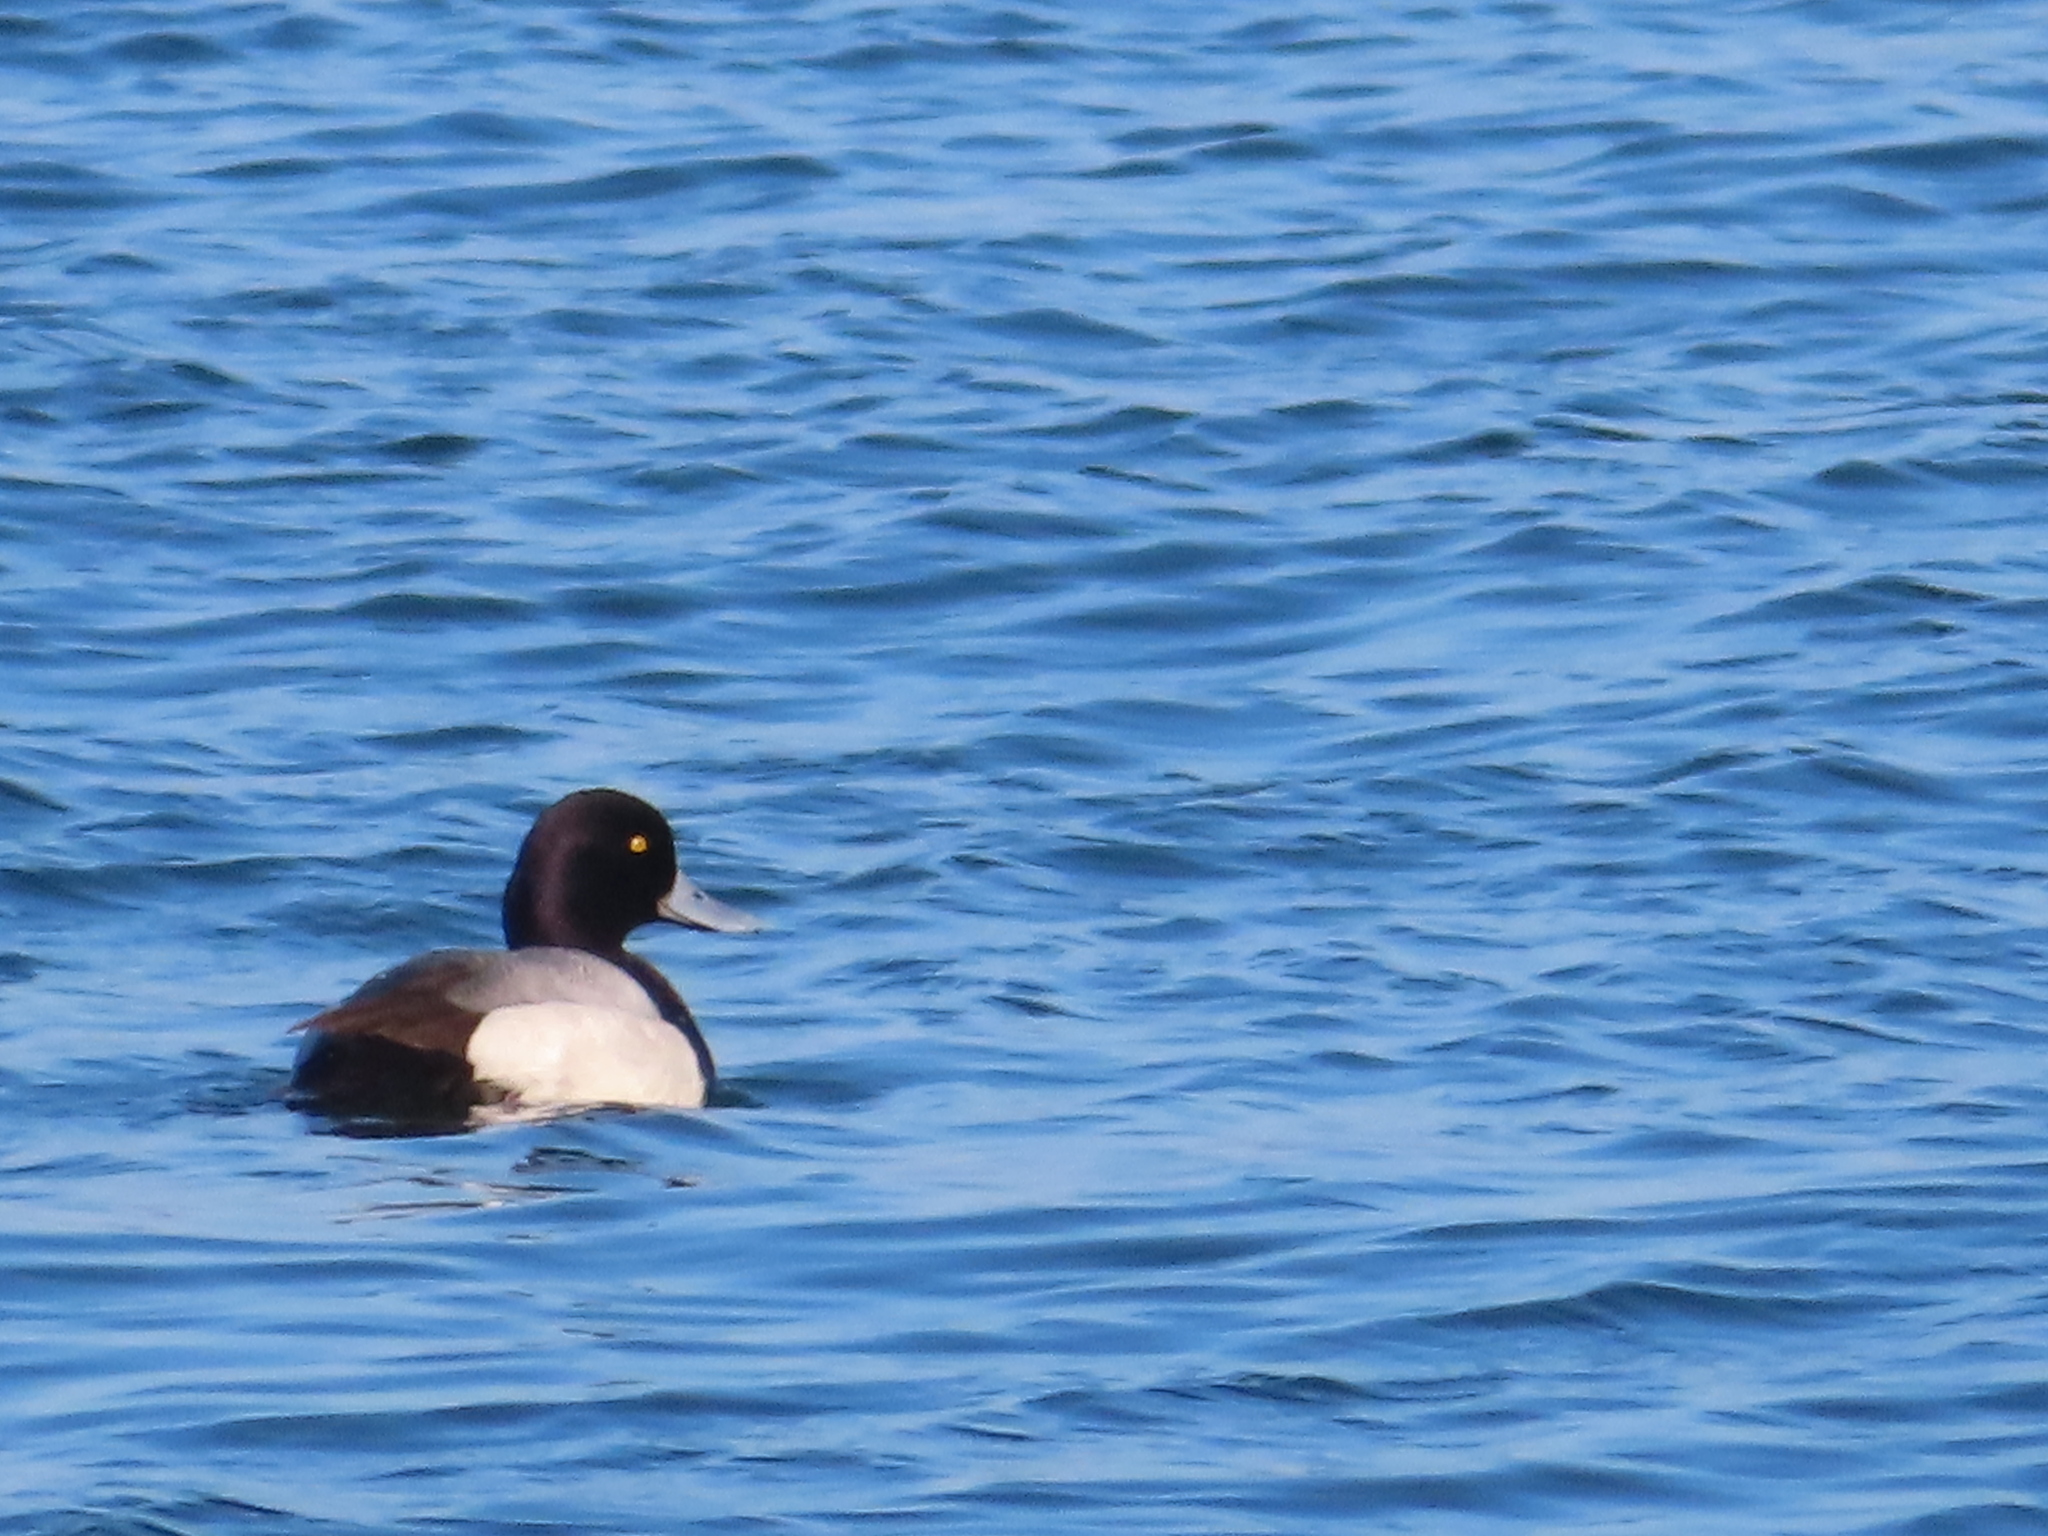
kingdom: Animalia
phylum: Chordata
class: Aves
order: Anseriformes
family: Anatidae
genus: Aythya
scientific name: Aythya marila
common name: Greater scaup
